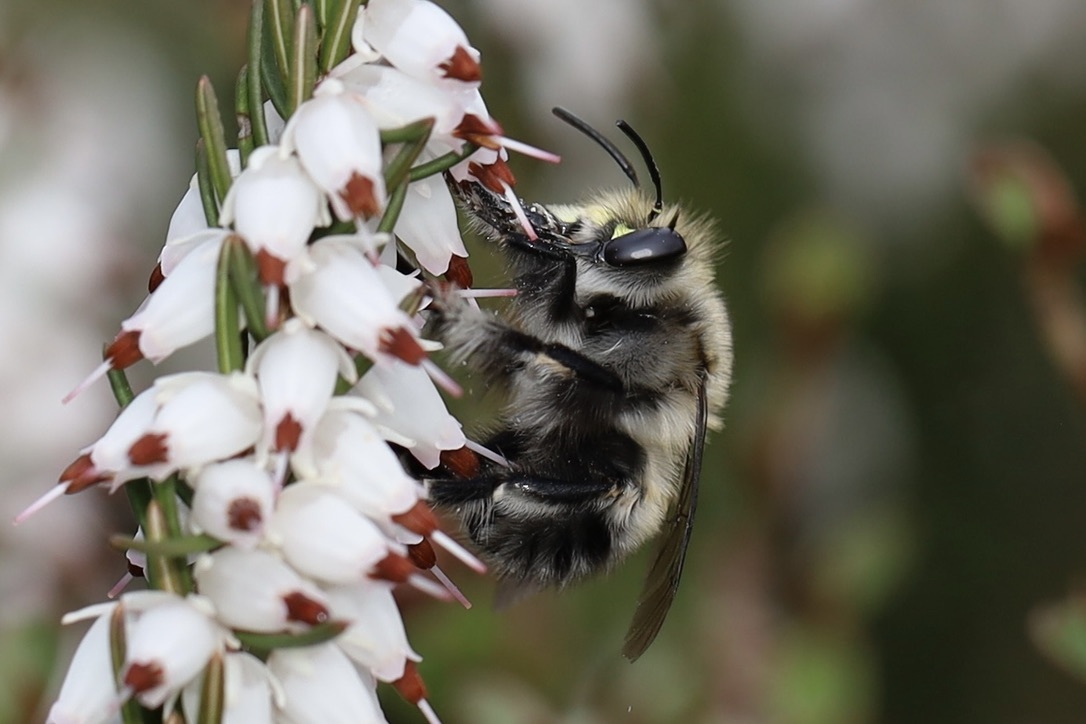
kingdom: Animalia
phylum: Arthropoda
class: Insecta
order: Hymenoptera
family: Apidae
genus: Anthophora
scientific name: Anthophora pacifica
